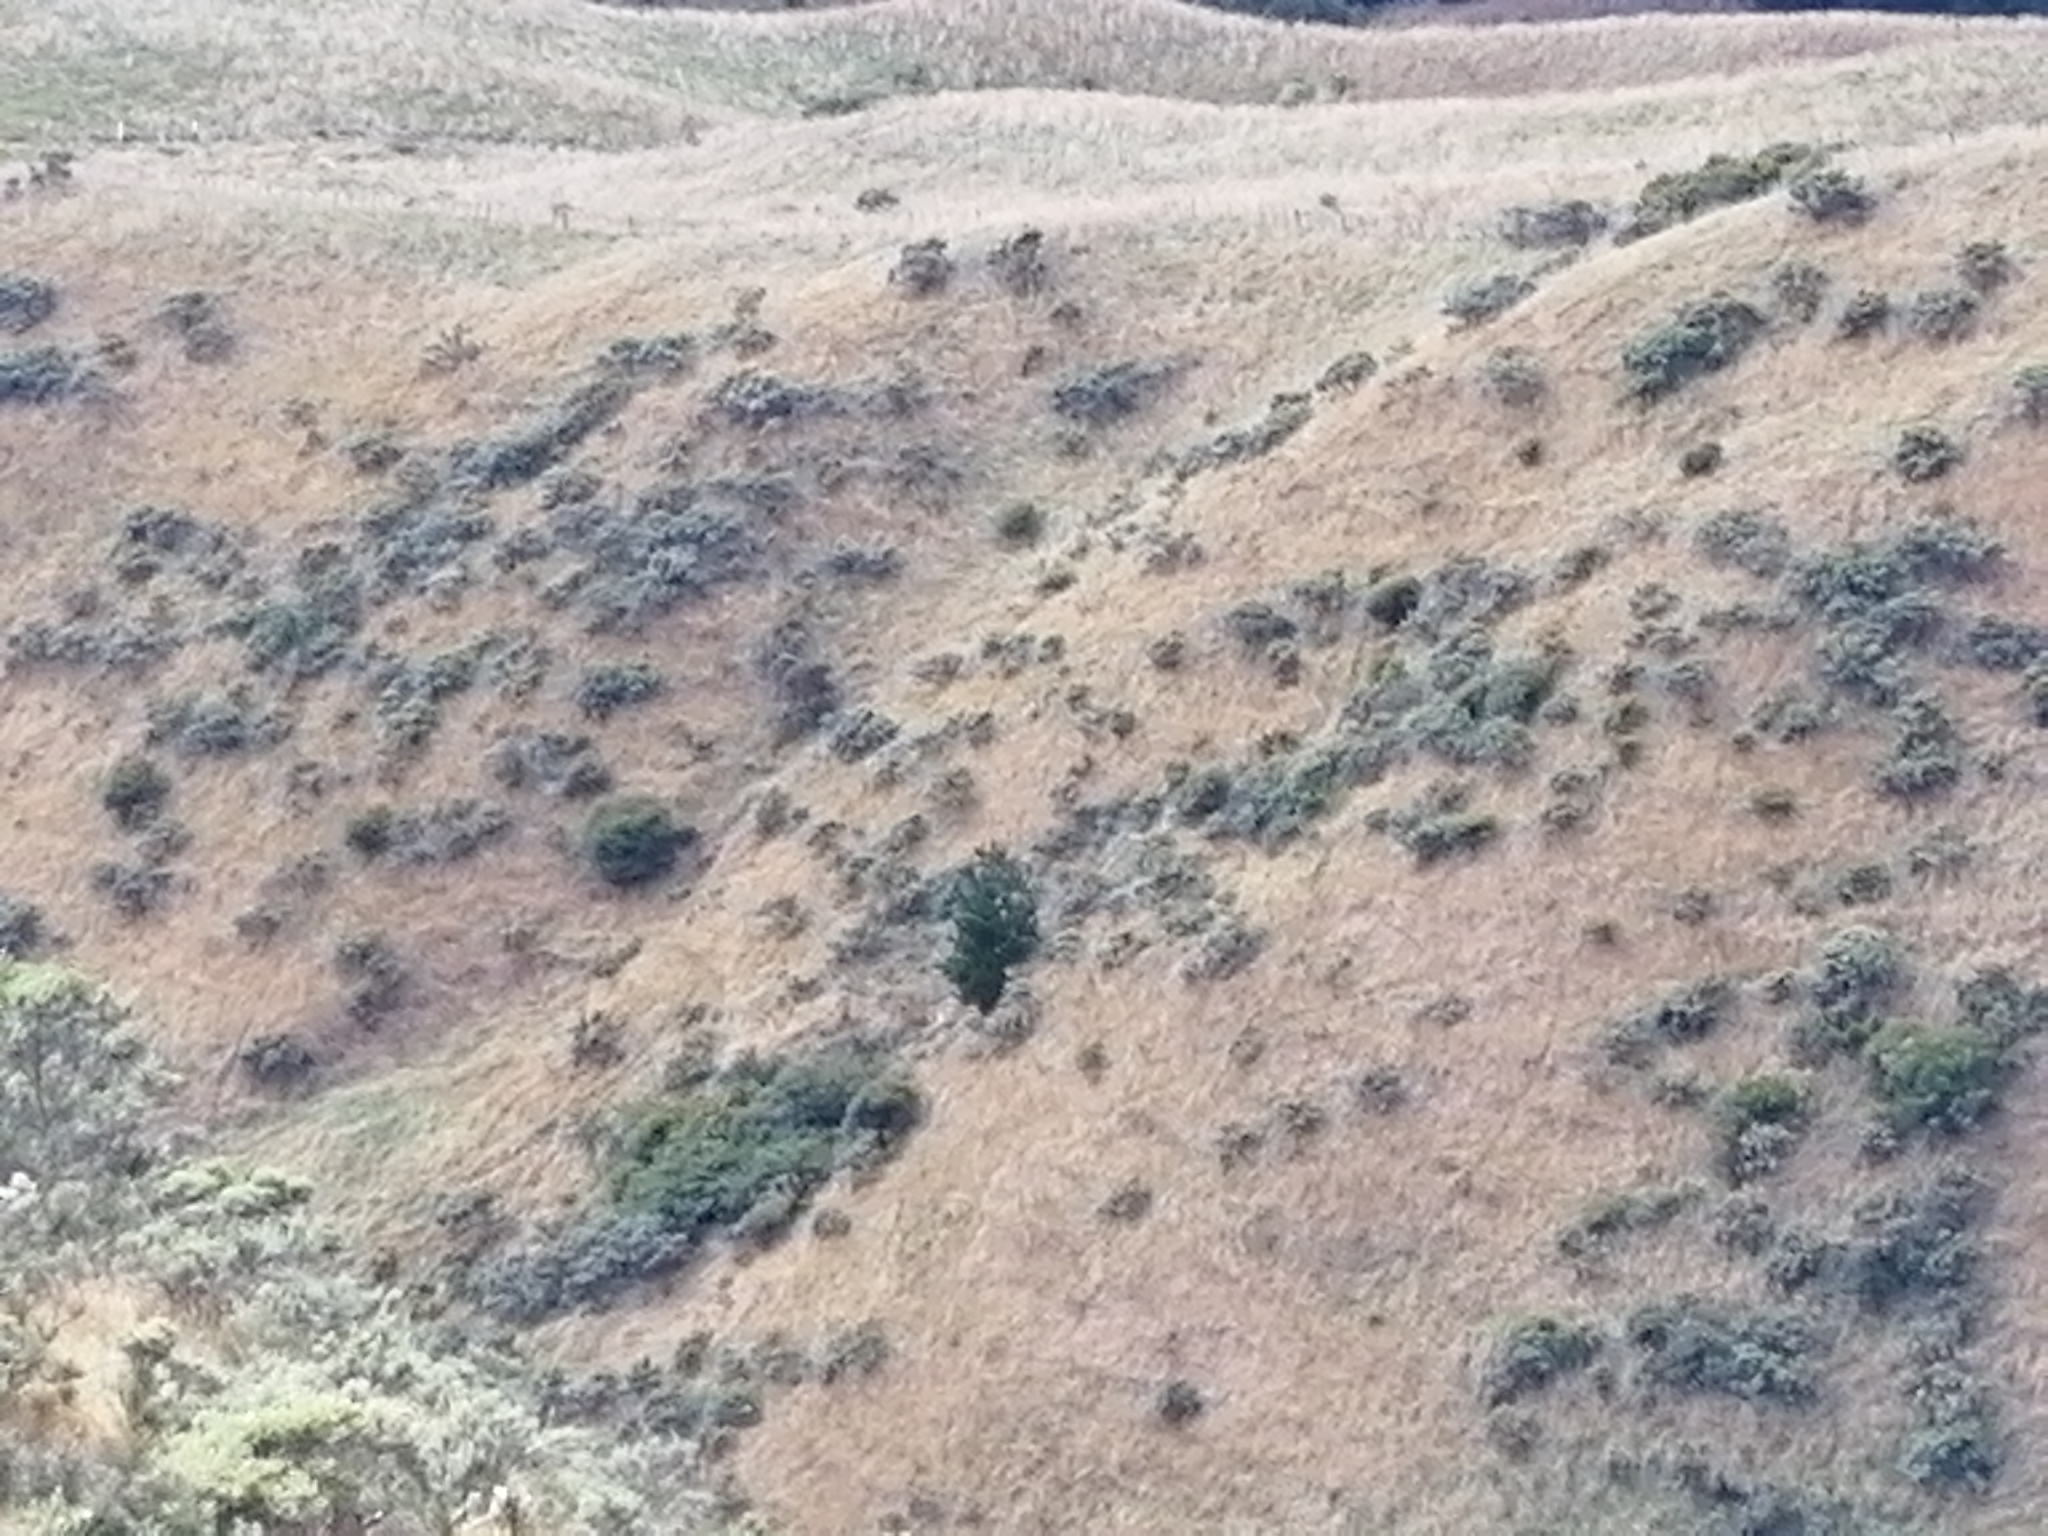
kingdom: Plantae
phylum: Tracheophyta
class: Pinopsida
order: Pinales
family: Pinaceae
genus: Pinus
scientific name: Pinus radiata
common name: Monterey pine
